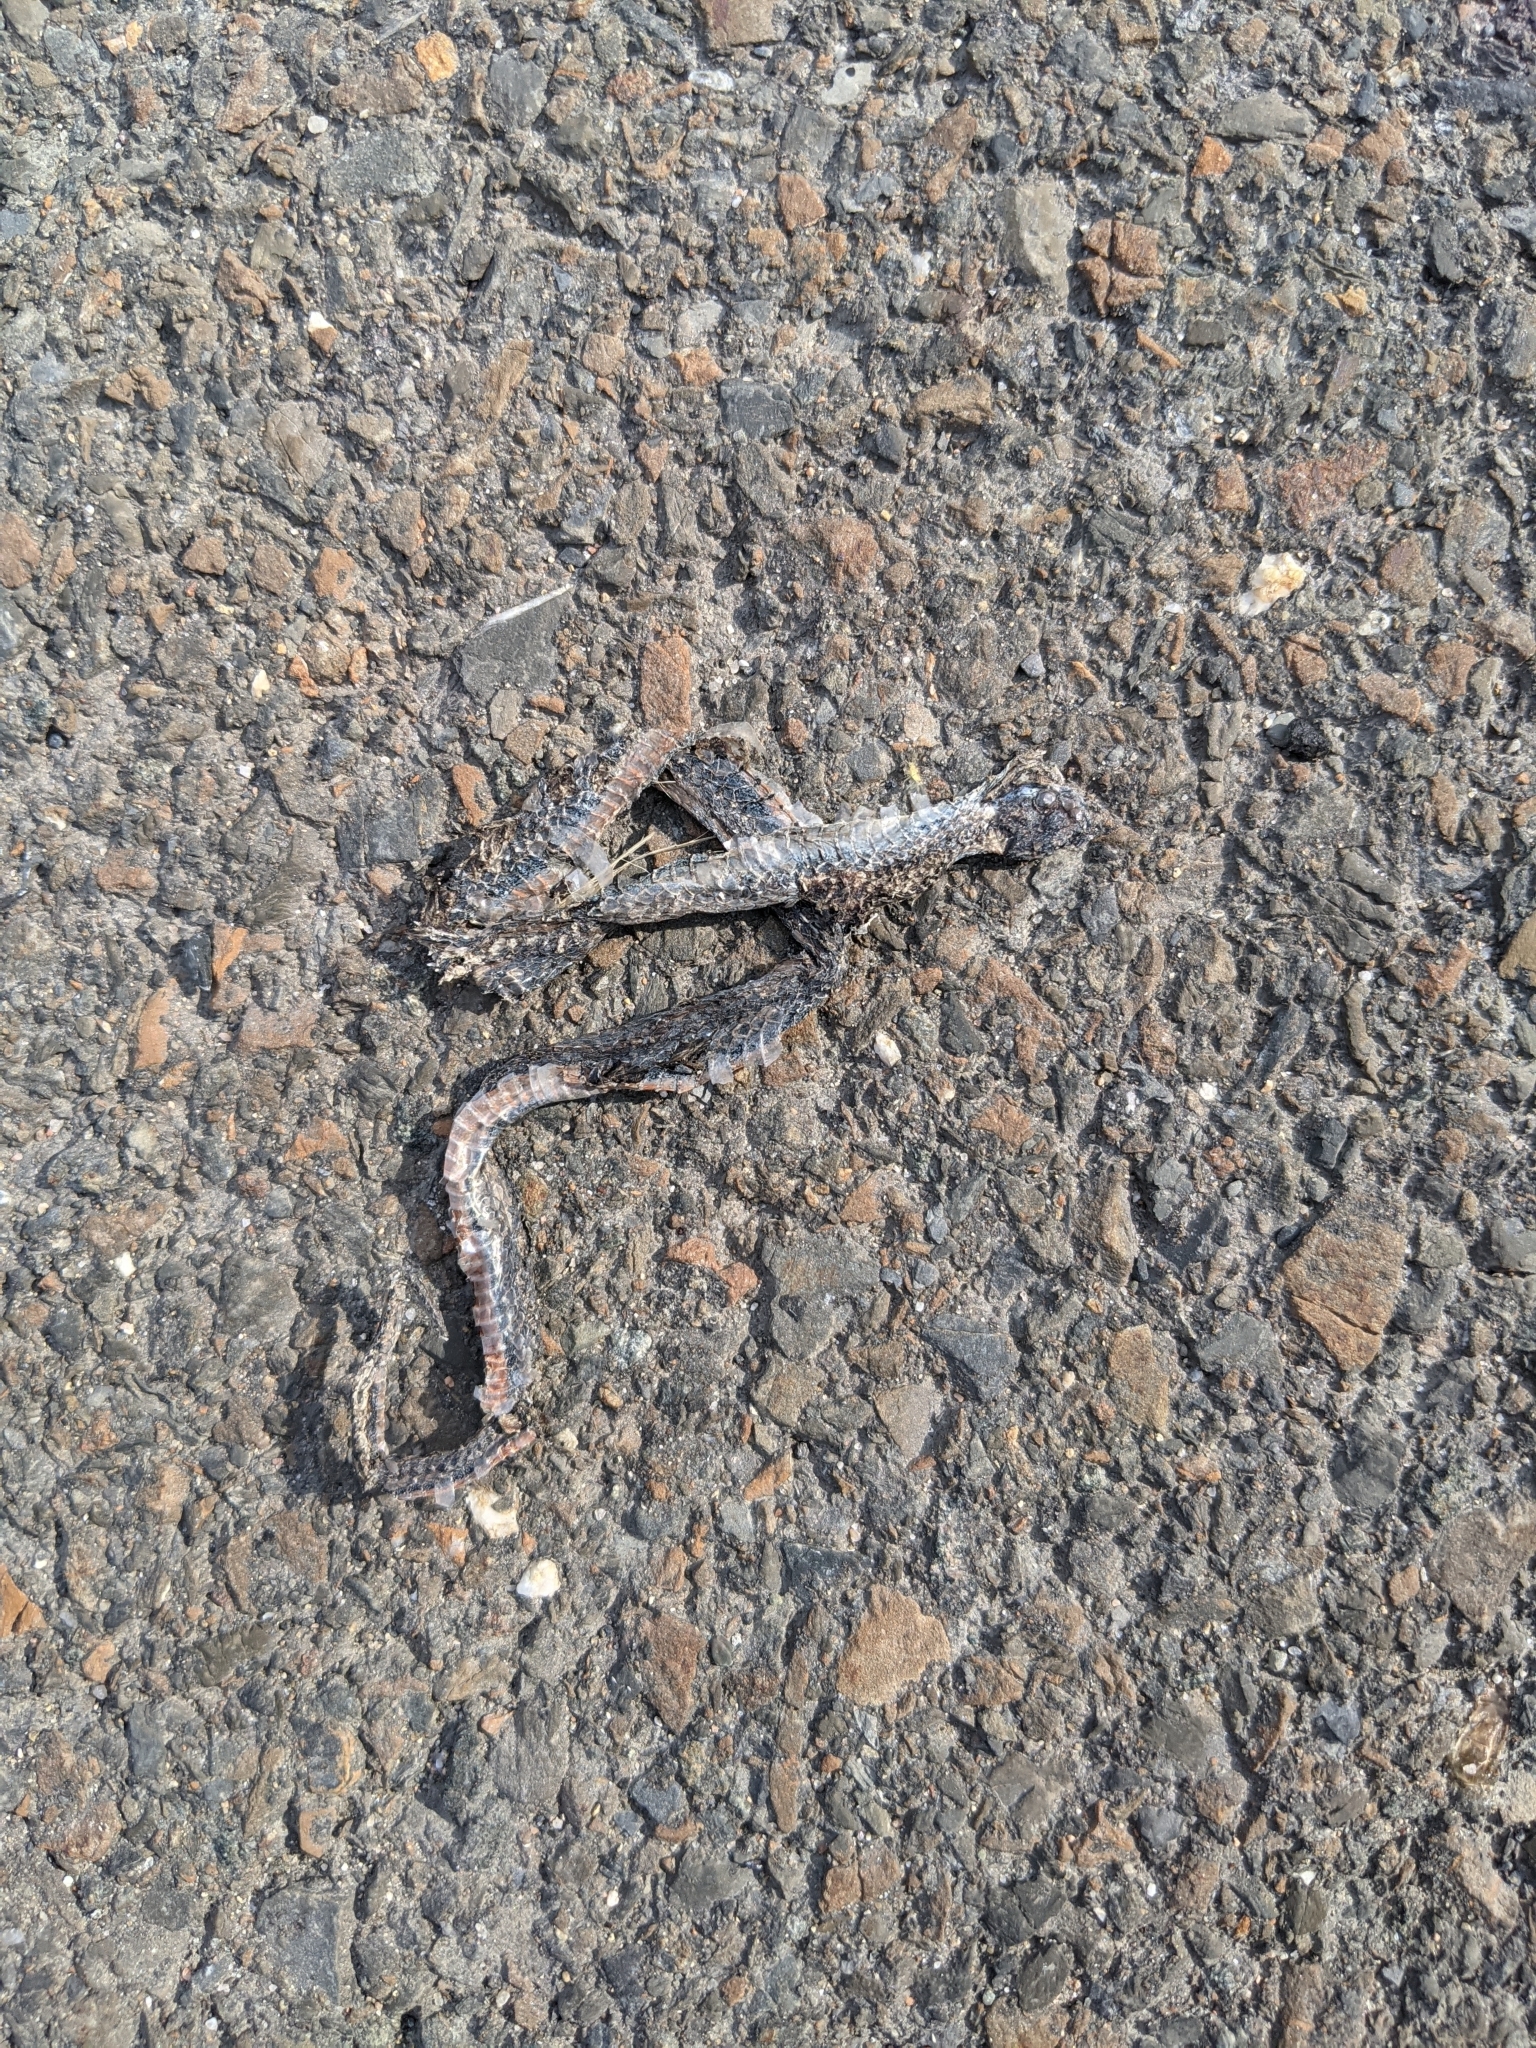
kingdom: Animalia
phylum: Chordata
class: Squamata
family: Colubridae
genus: Thamnophis
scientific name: Thamnophis sirtalis
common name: Common garter snake
